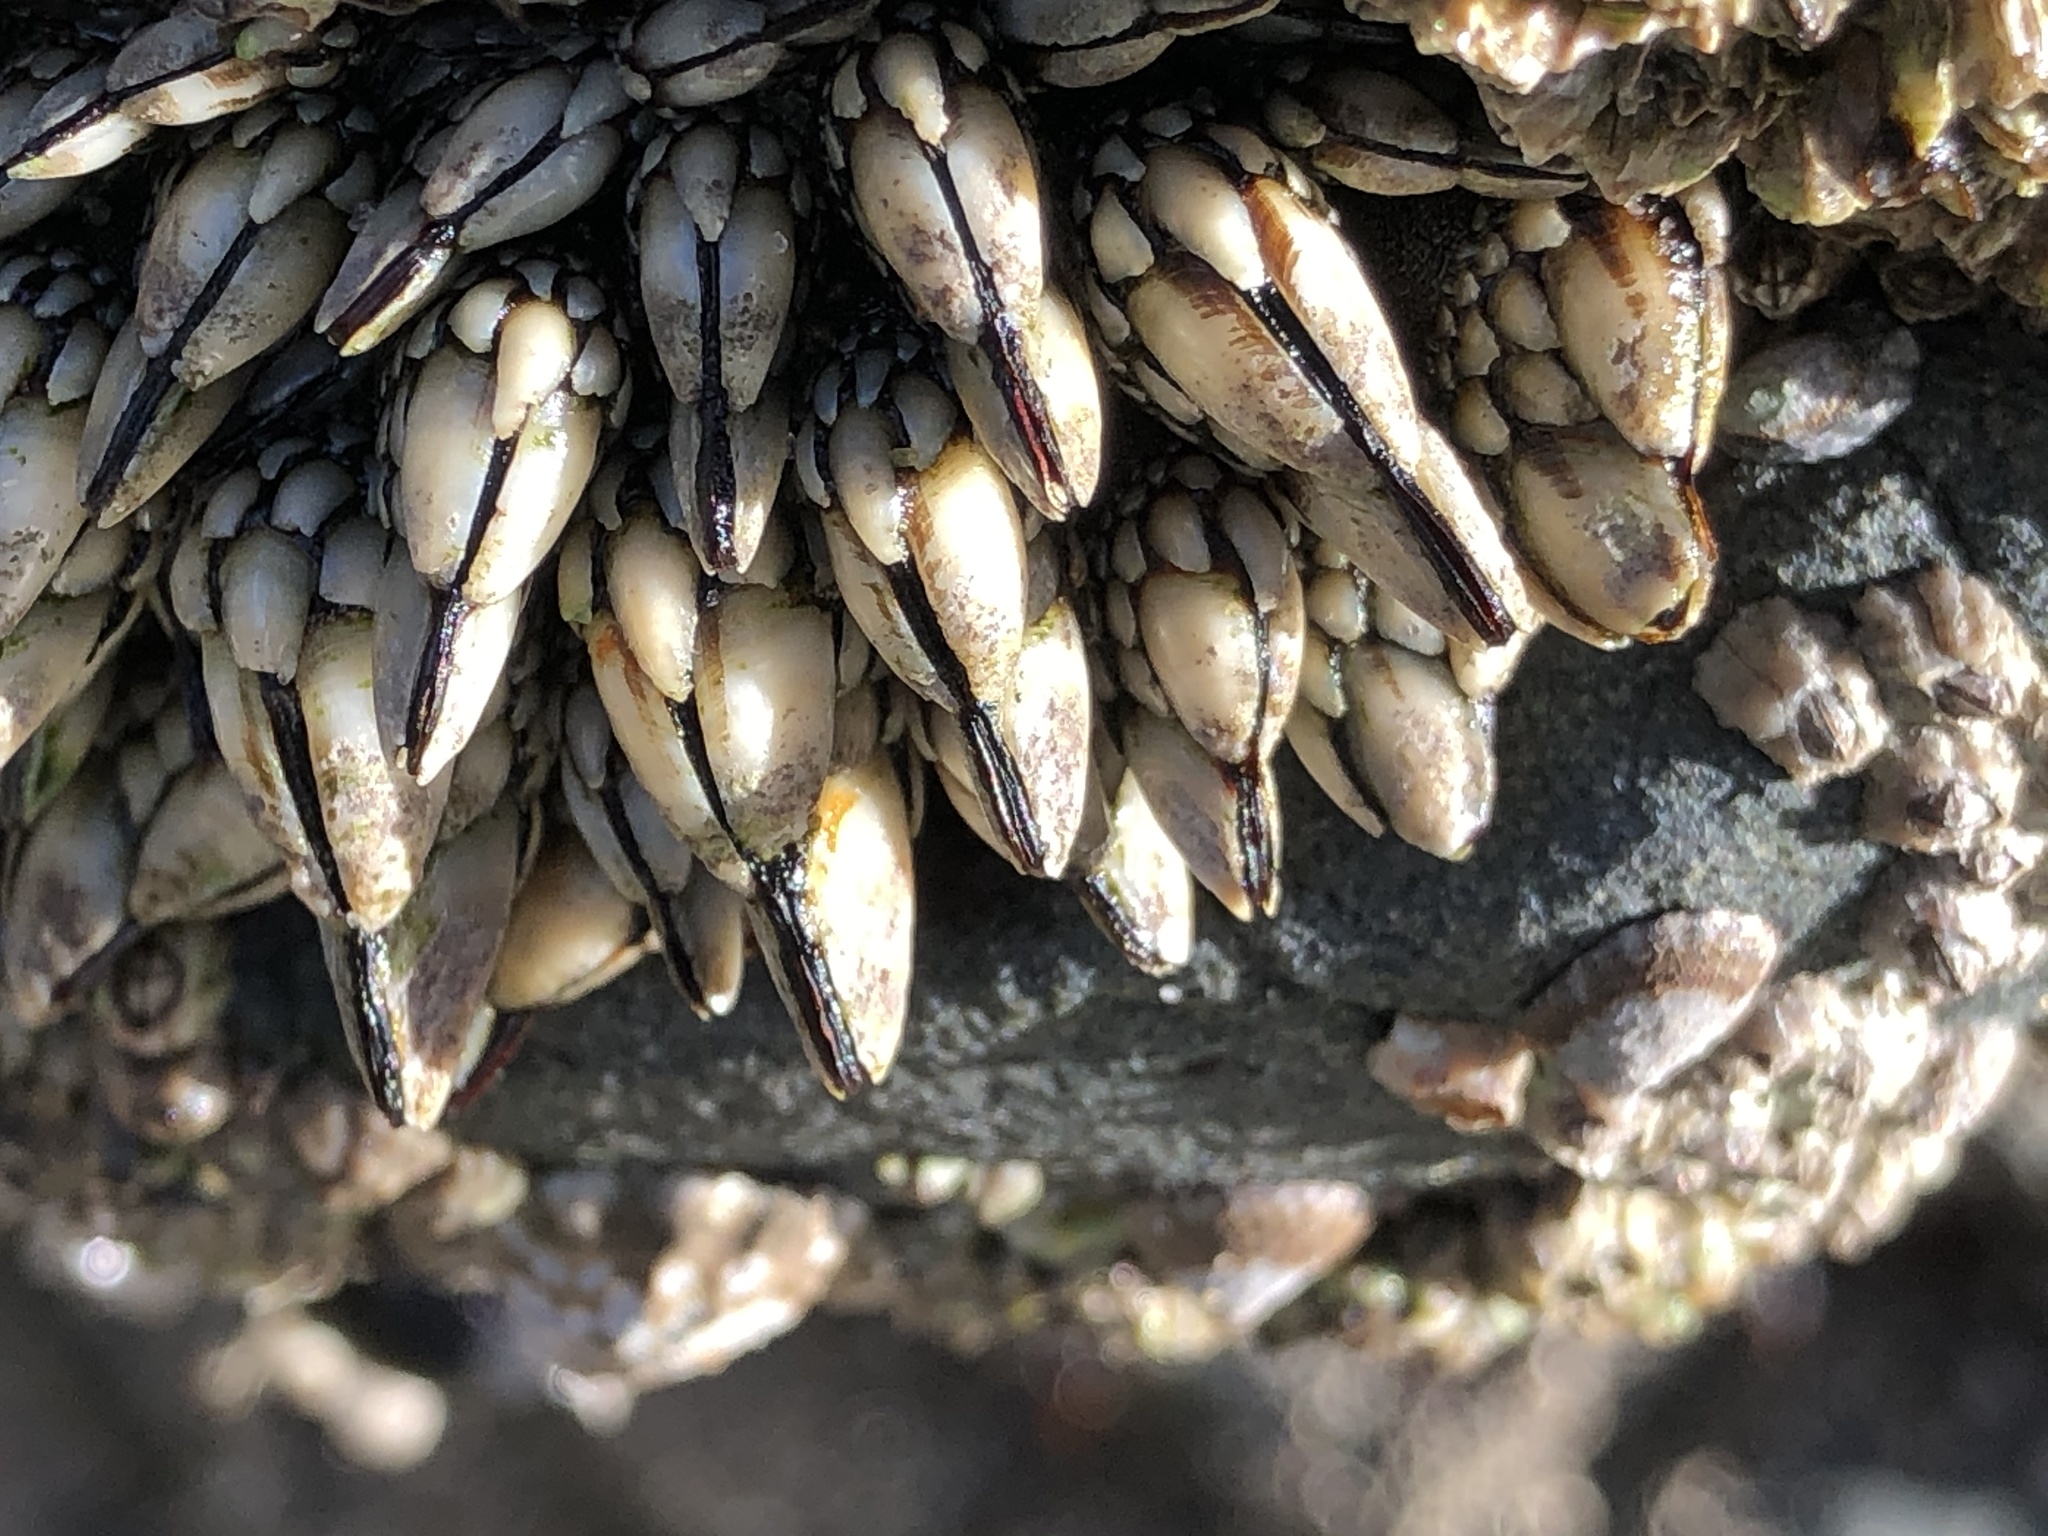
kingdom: Animalia
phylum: Arthropoda
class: Maxillopoda
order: Pedunculata
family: Pollicipedidae
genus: Pollicipes
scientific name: Pollicipes polymerus
